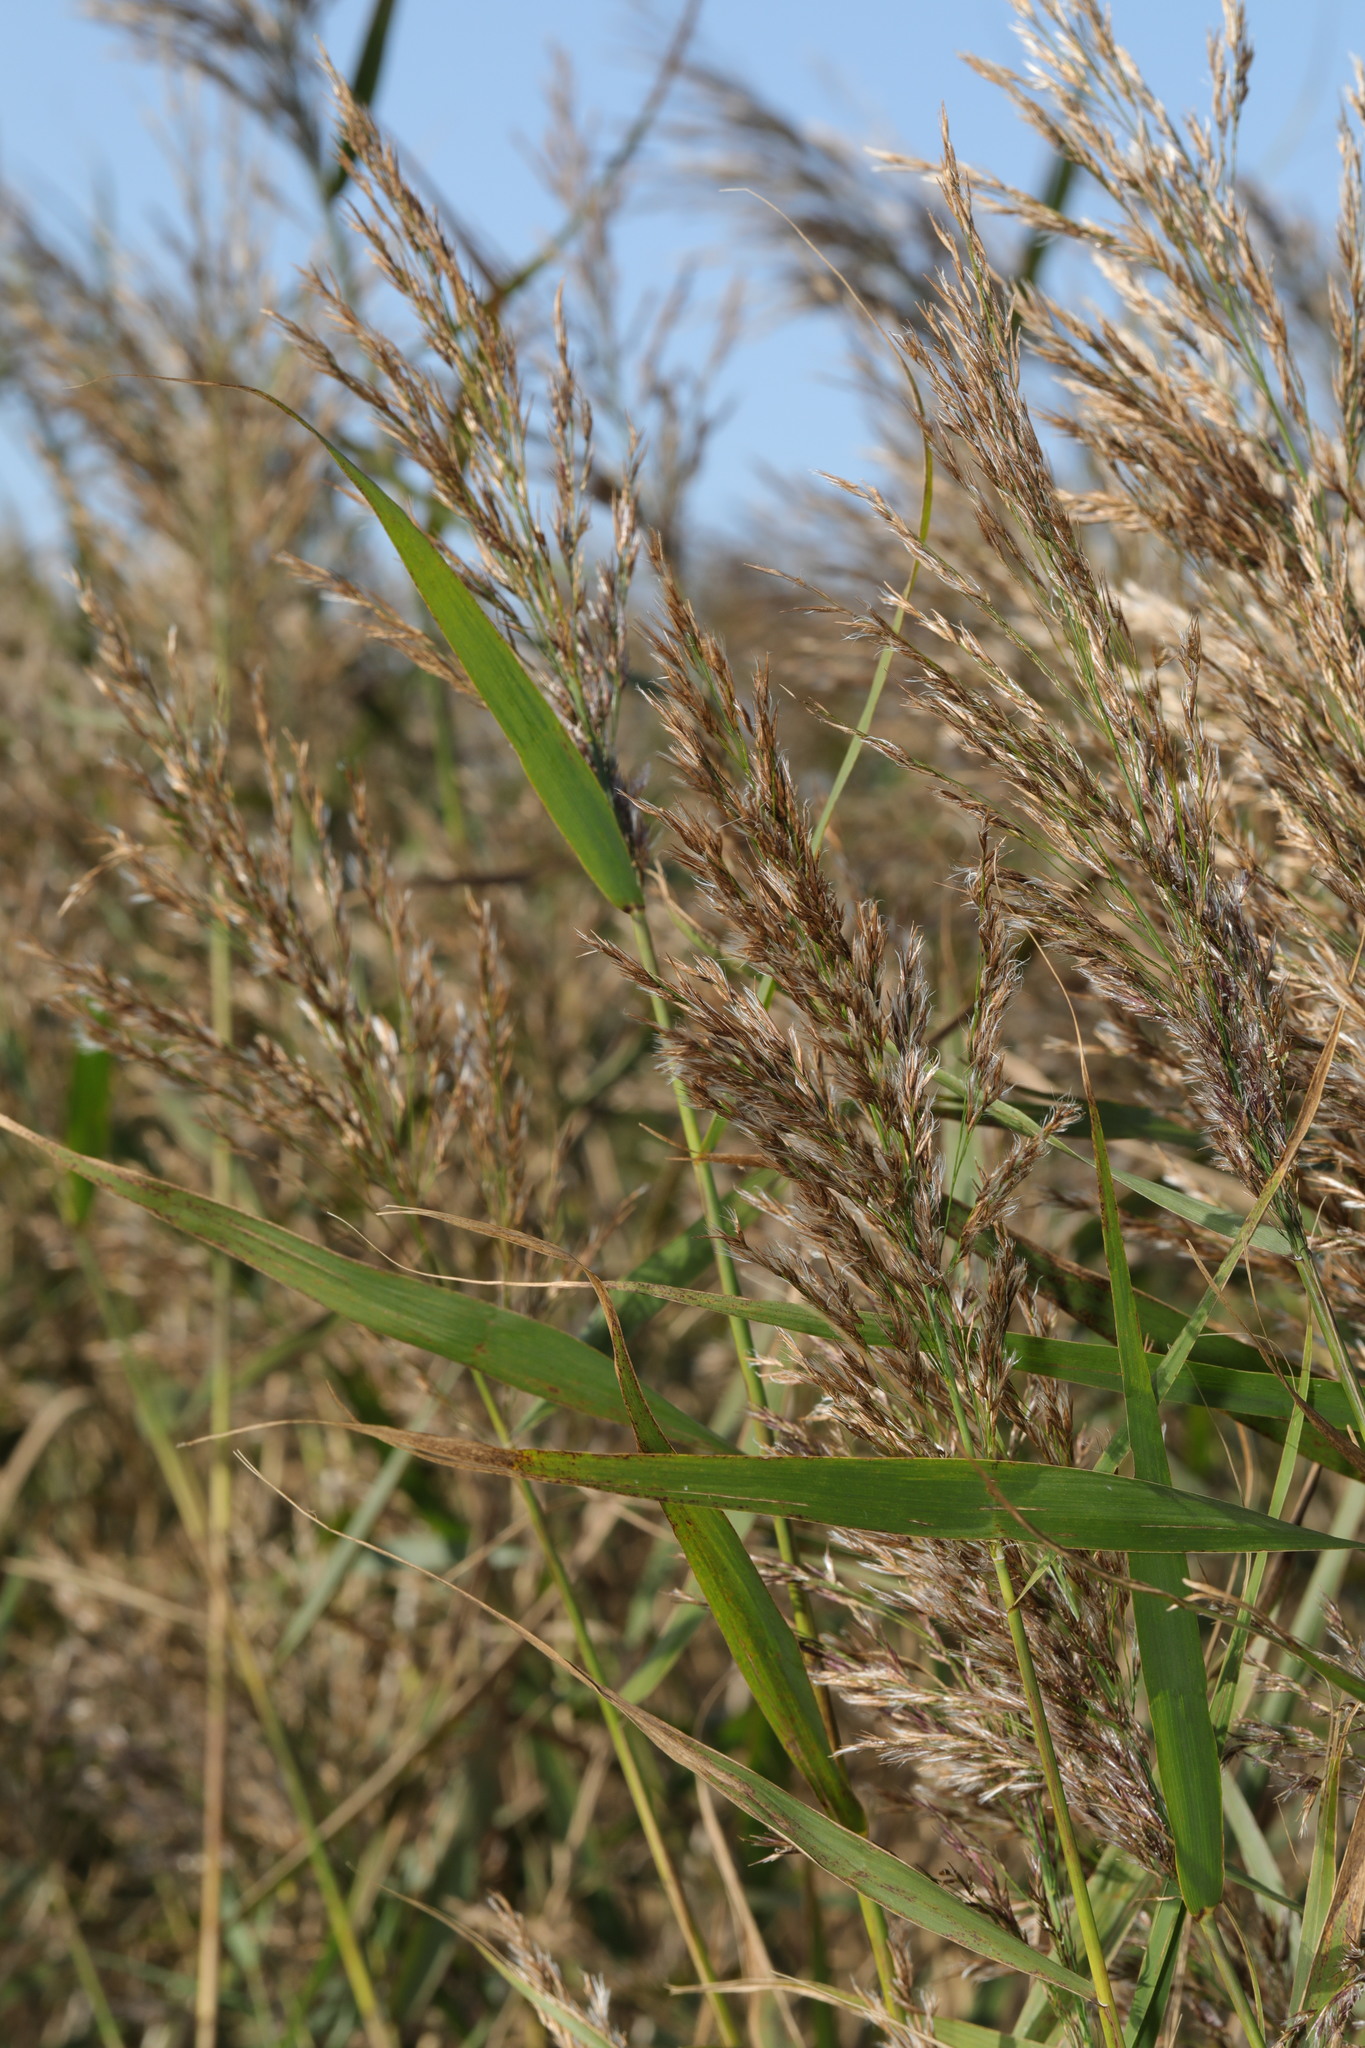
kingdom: Plantae
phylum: Tracheophyta
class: Liliopsida
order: Poales
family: Poaceae
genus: Phragmites
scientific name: Phragmites australis
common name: Common reed
